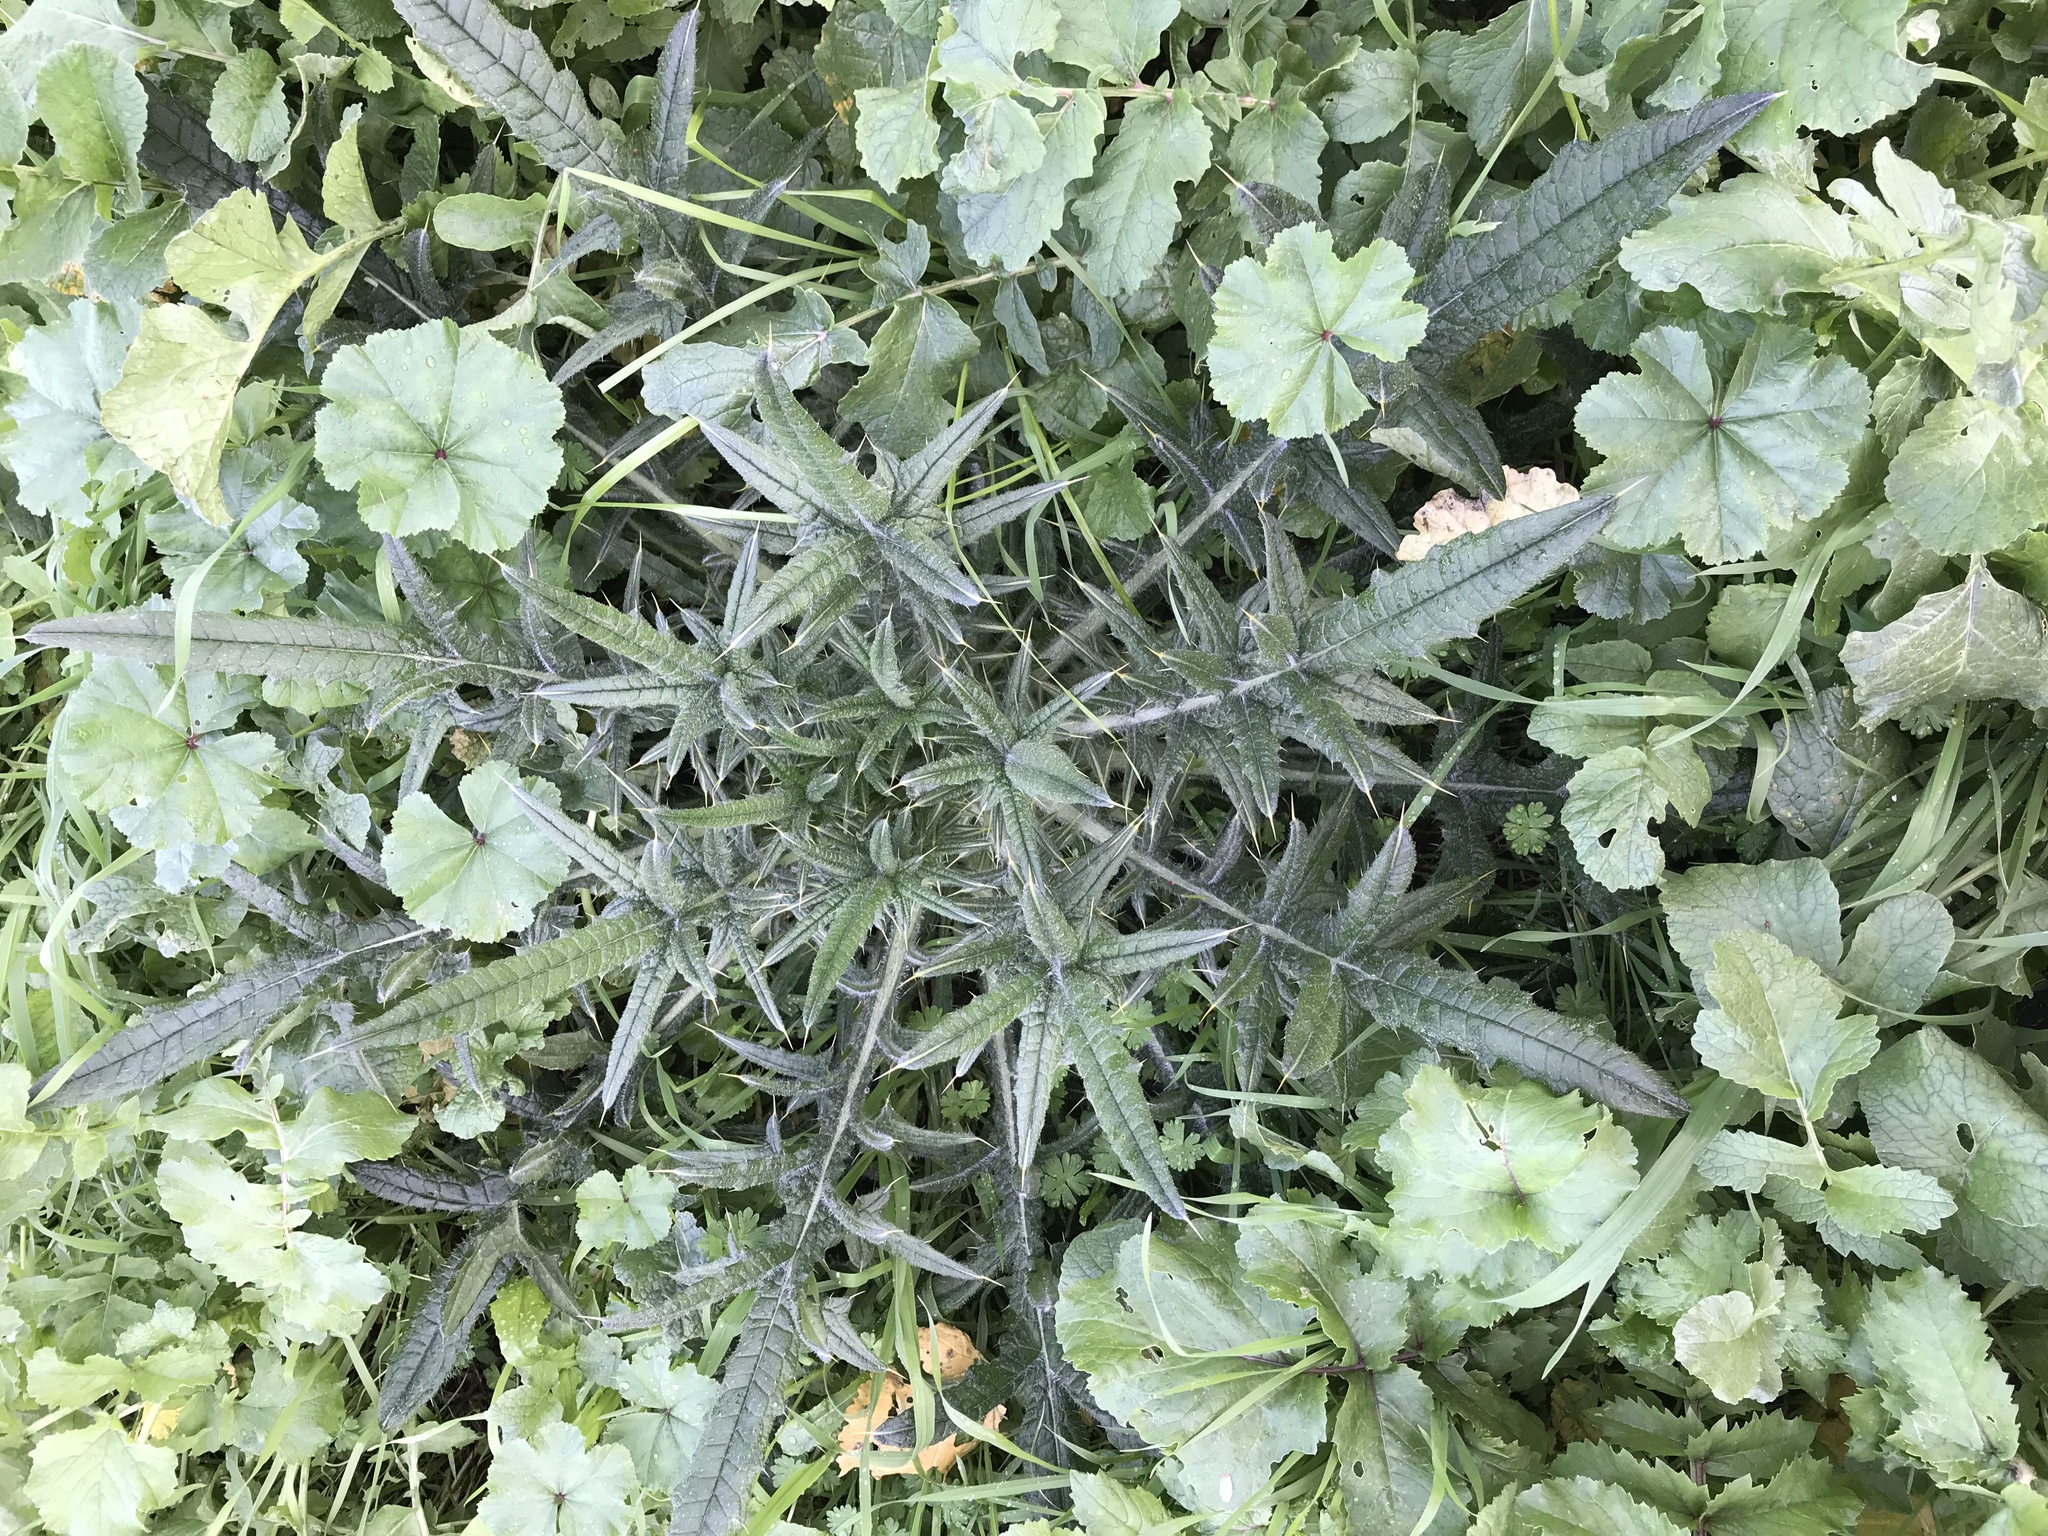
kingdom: Plantae
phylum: Tracheophyta
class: Magnoliopsida
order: Asterales
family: Asteraceae
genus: Cirsium
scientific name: Cirsium vulgare
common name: Bull thistle
